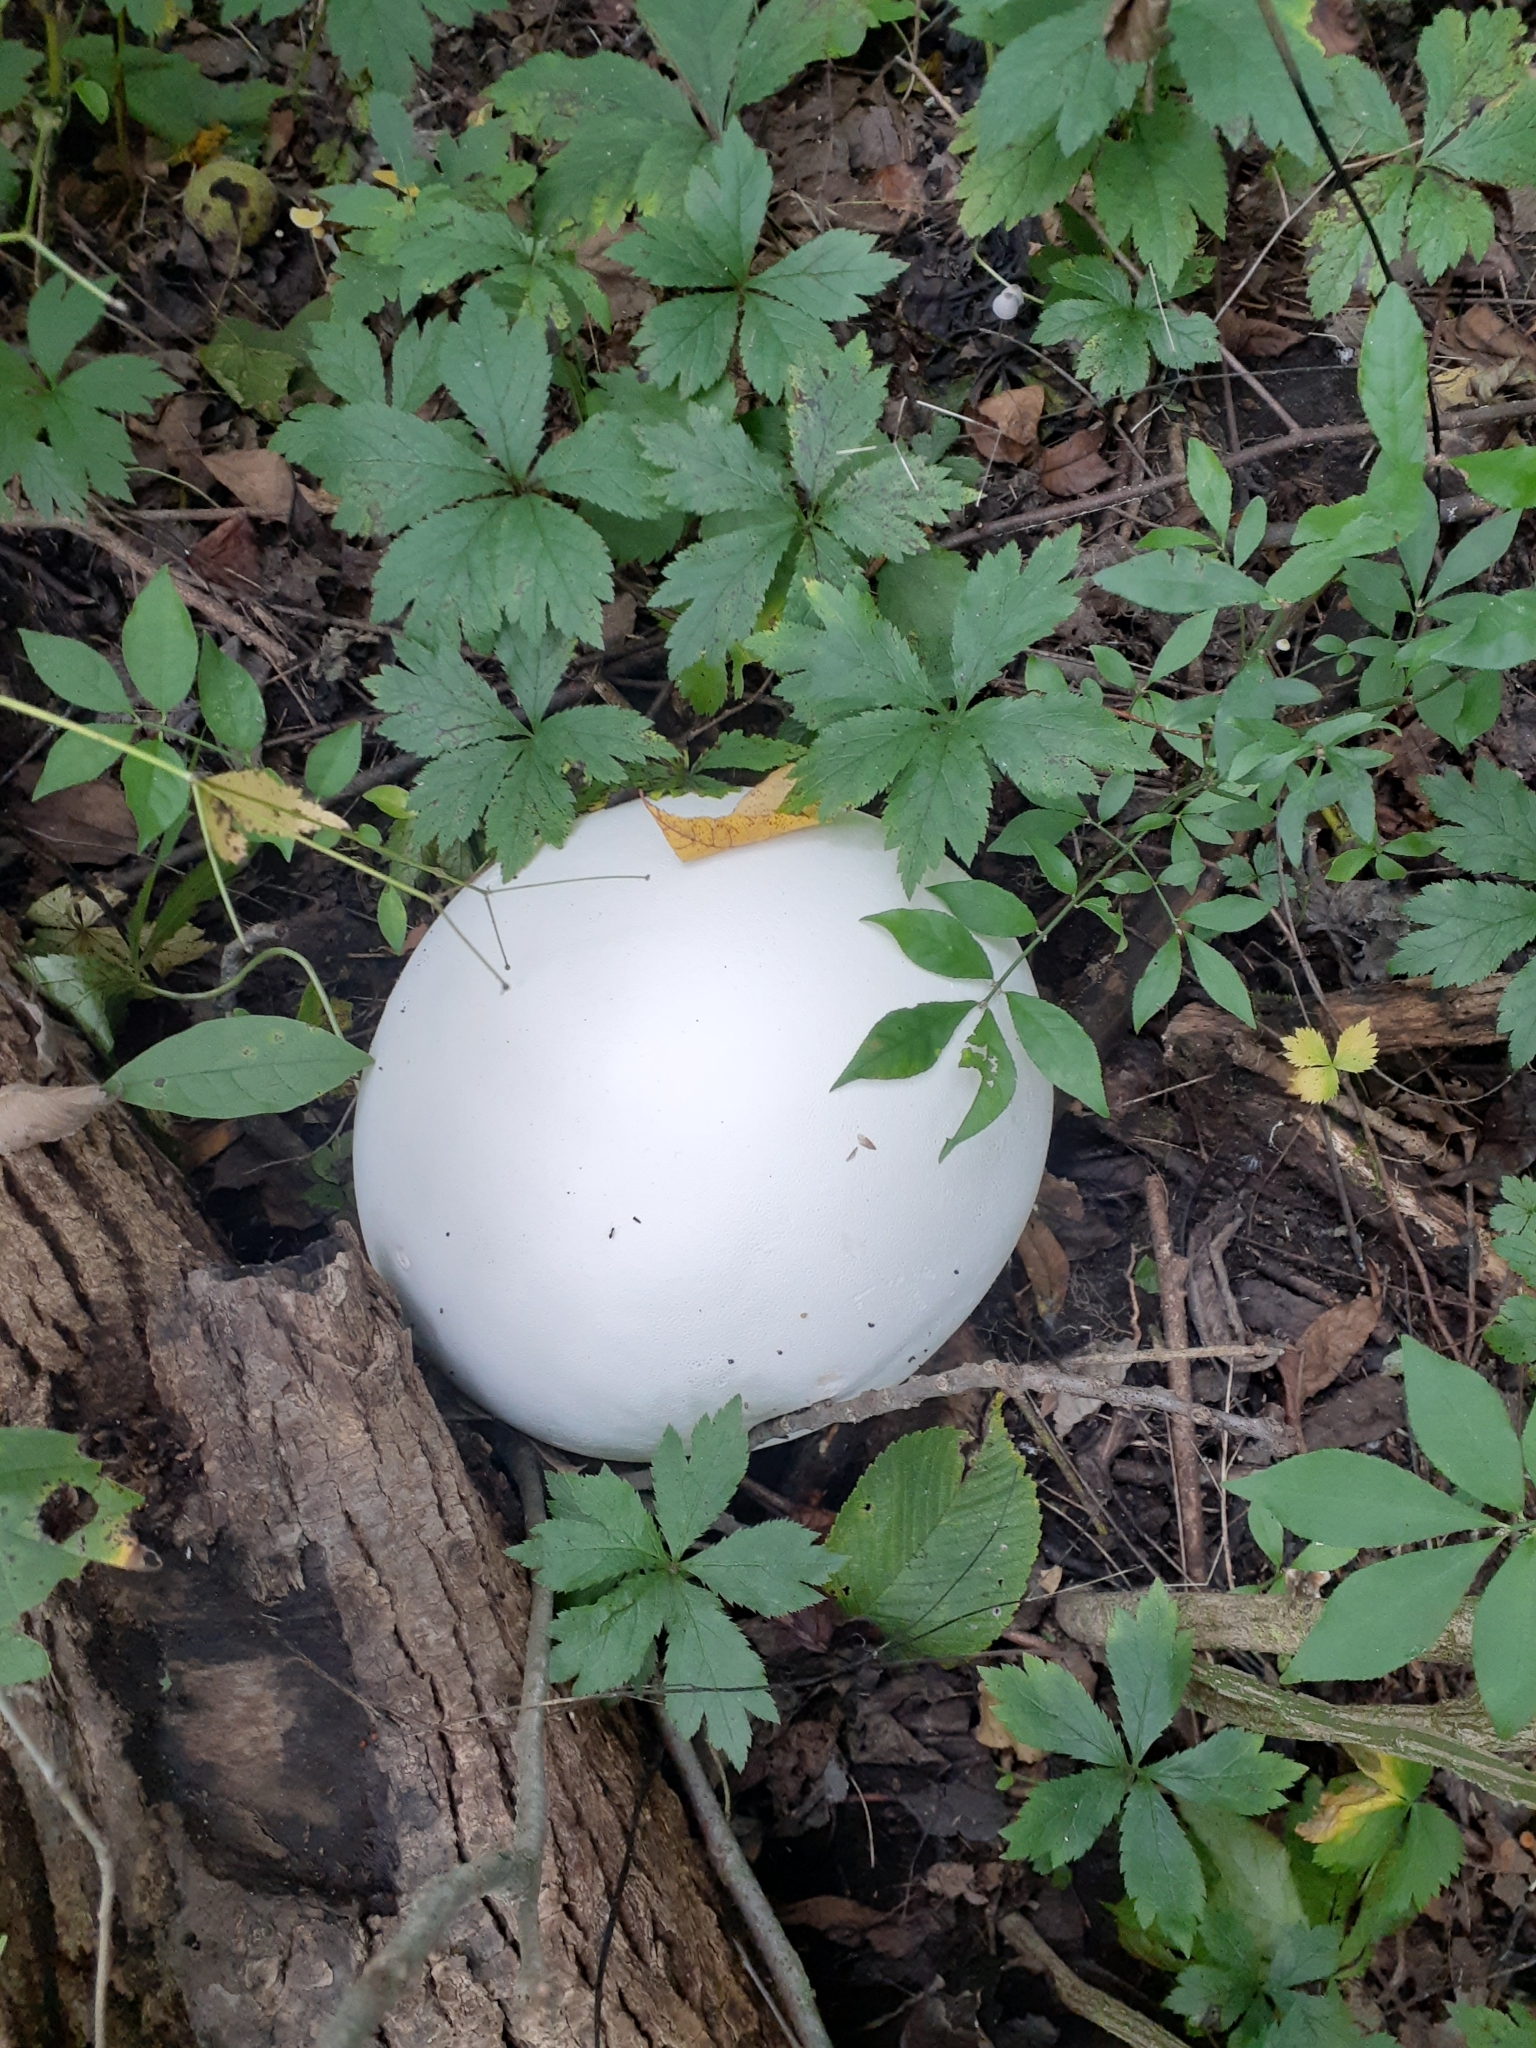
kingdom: Fungi
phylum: Basidiomycota
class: Agaricomycetes
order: Agaricales
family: Lycoperdaceae
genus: Calvatia
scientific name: Calvatia gigantea
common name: Giant puffball
